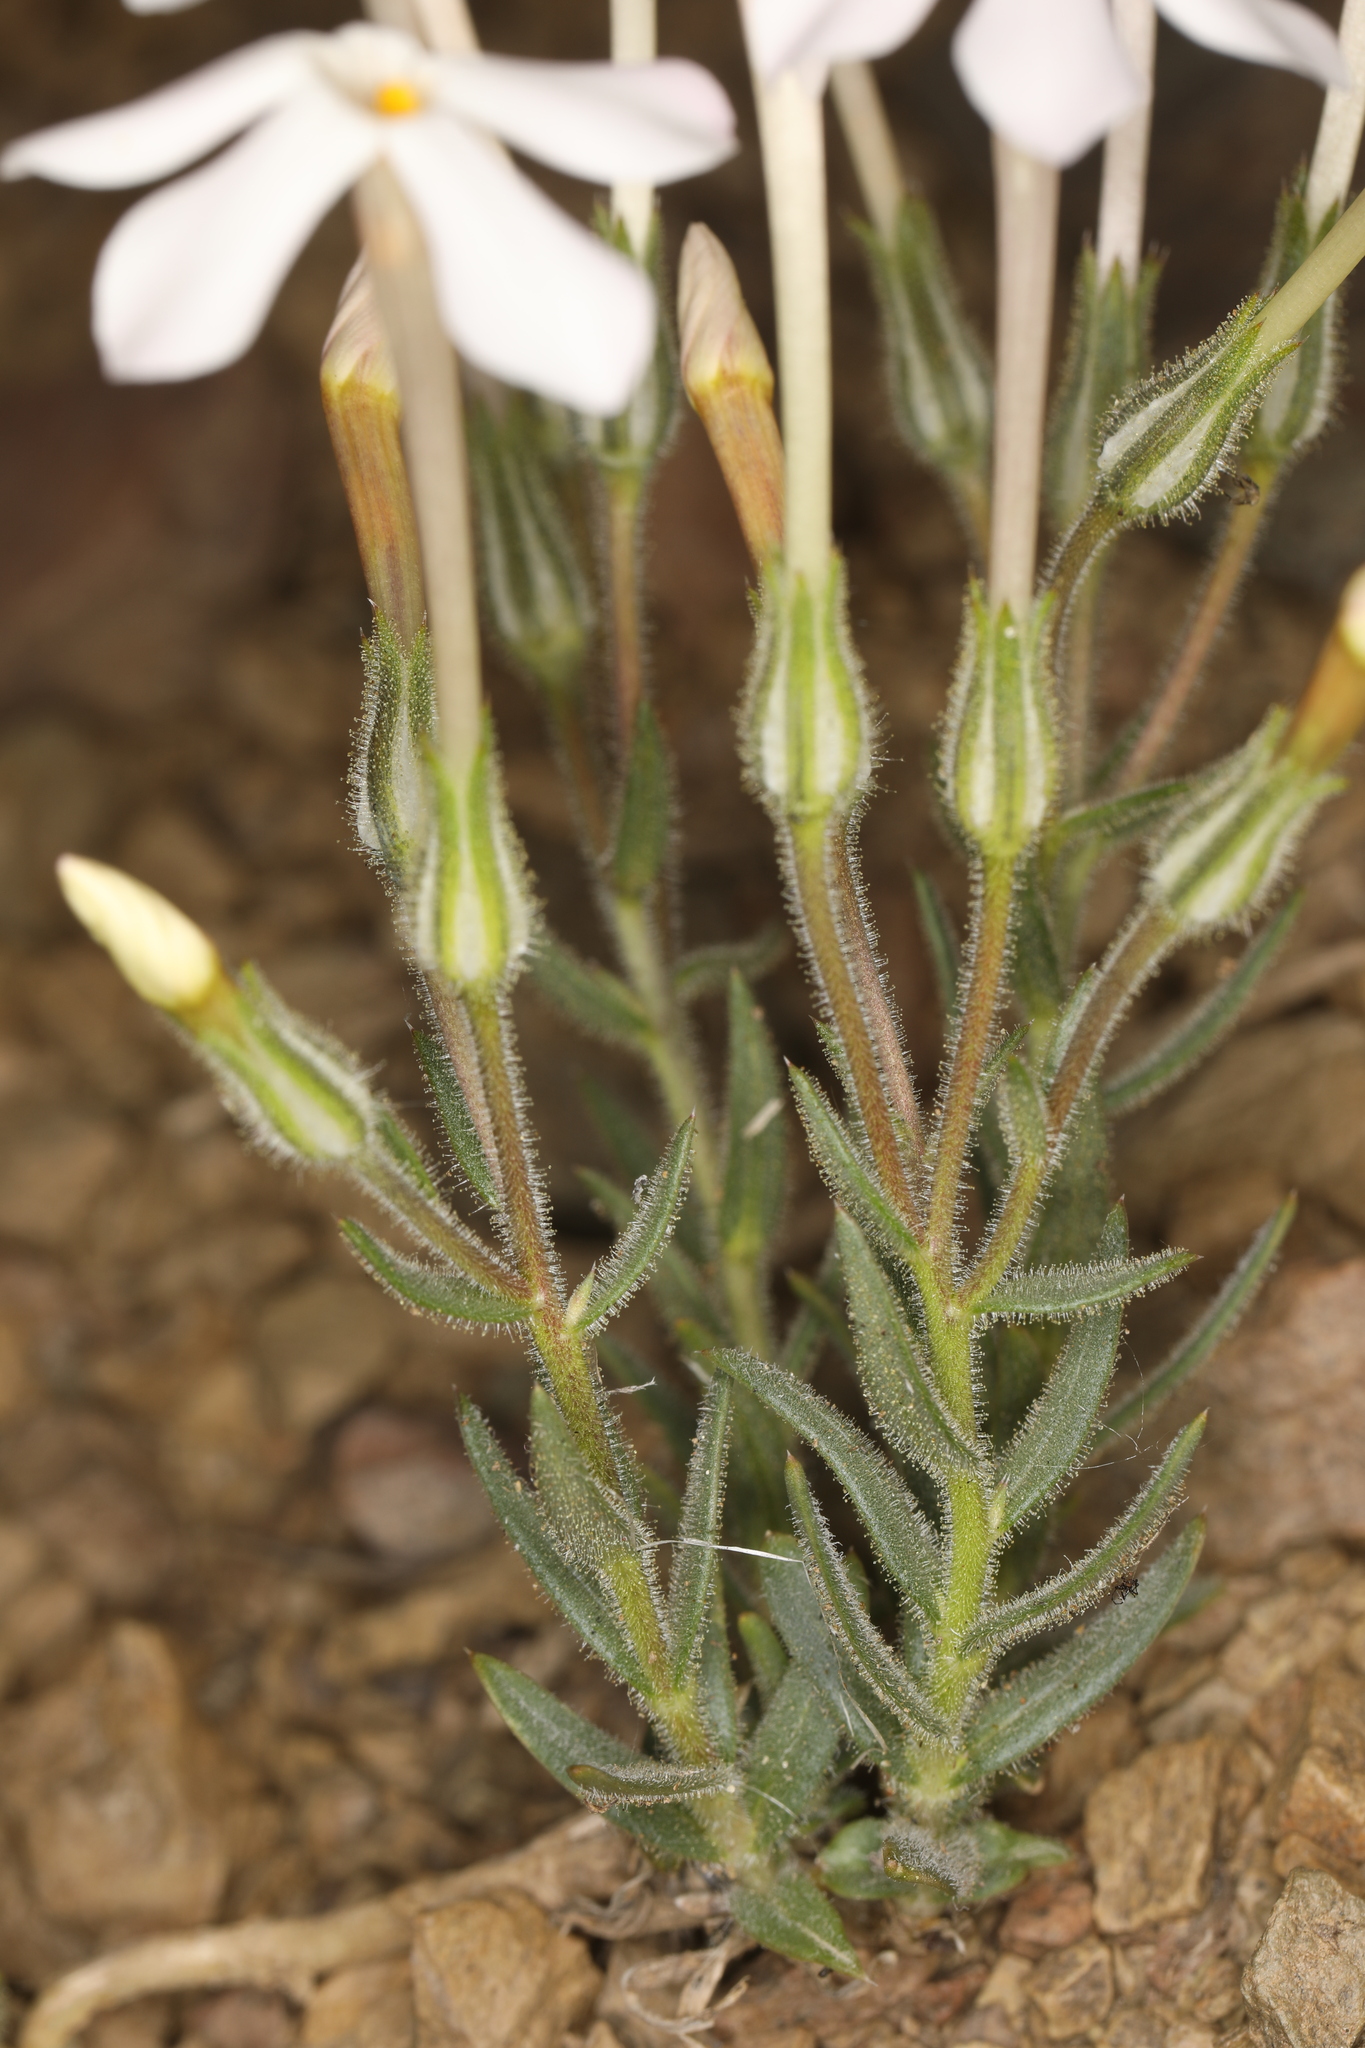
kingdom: Plantae
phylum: Tracheophyta
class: Magnoliopsida
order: Ericales
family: Polemoniaceae
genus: Phlox
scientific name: Phlox longifolia
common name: Longleaf phlox
